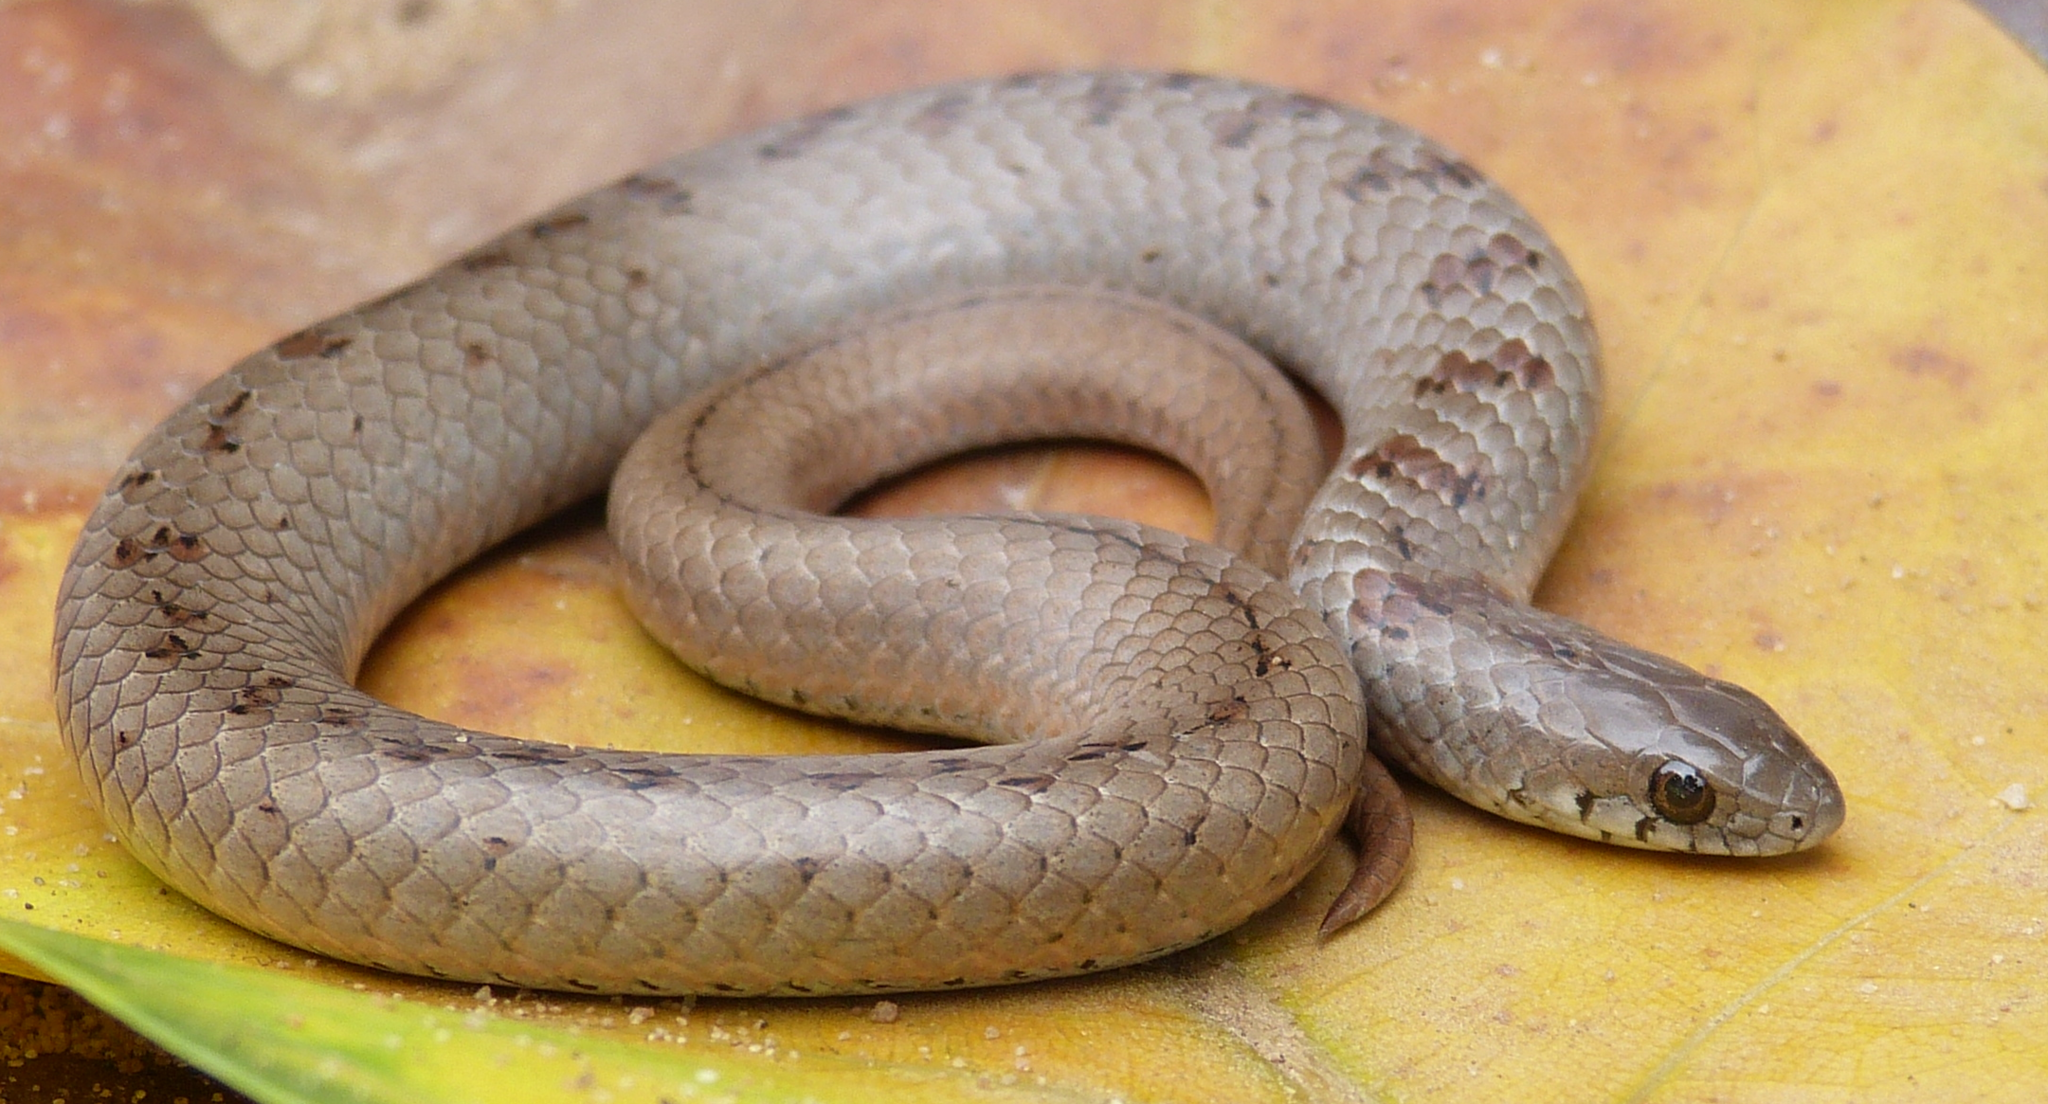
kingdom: Animalia
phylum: Chordata
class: Squamata
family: Pseudoxyrhophiidae
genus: Duberria
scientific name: Duberria variegata
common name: Spotted slug-eater
